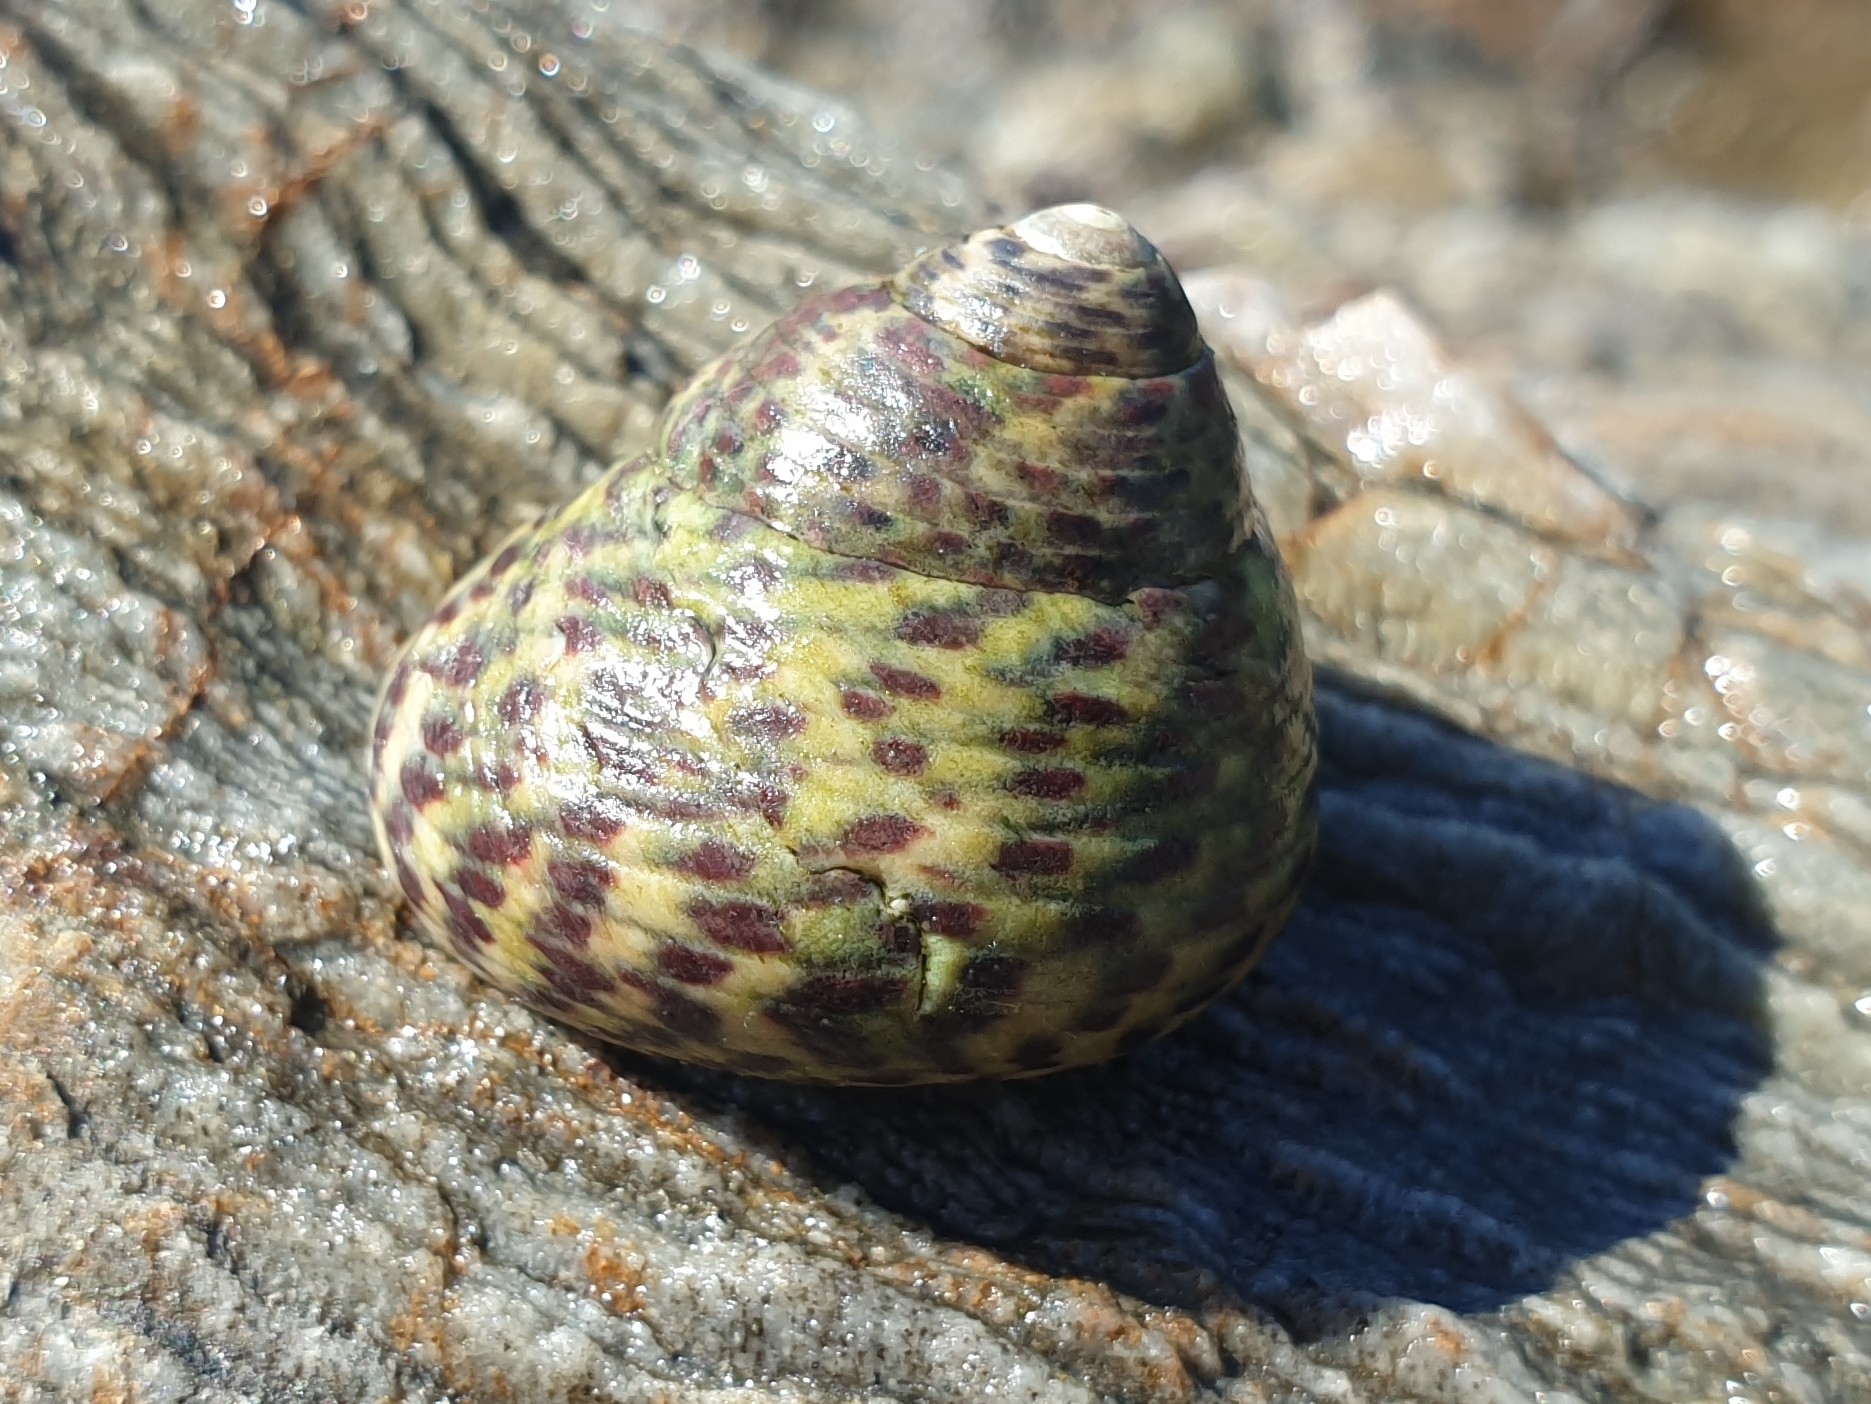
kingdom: Animalia
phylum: Mollusca
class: Gastropoda
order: Trochida
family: Trochidae
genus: Phorcus
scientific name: Phorcus turbinatus
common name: Turbinate monodont
